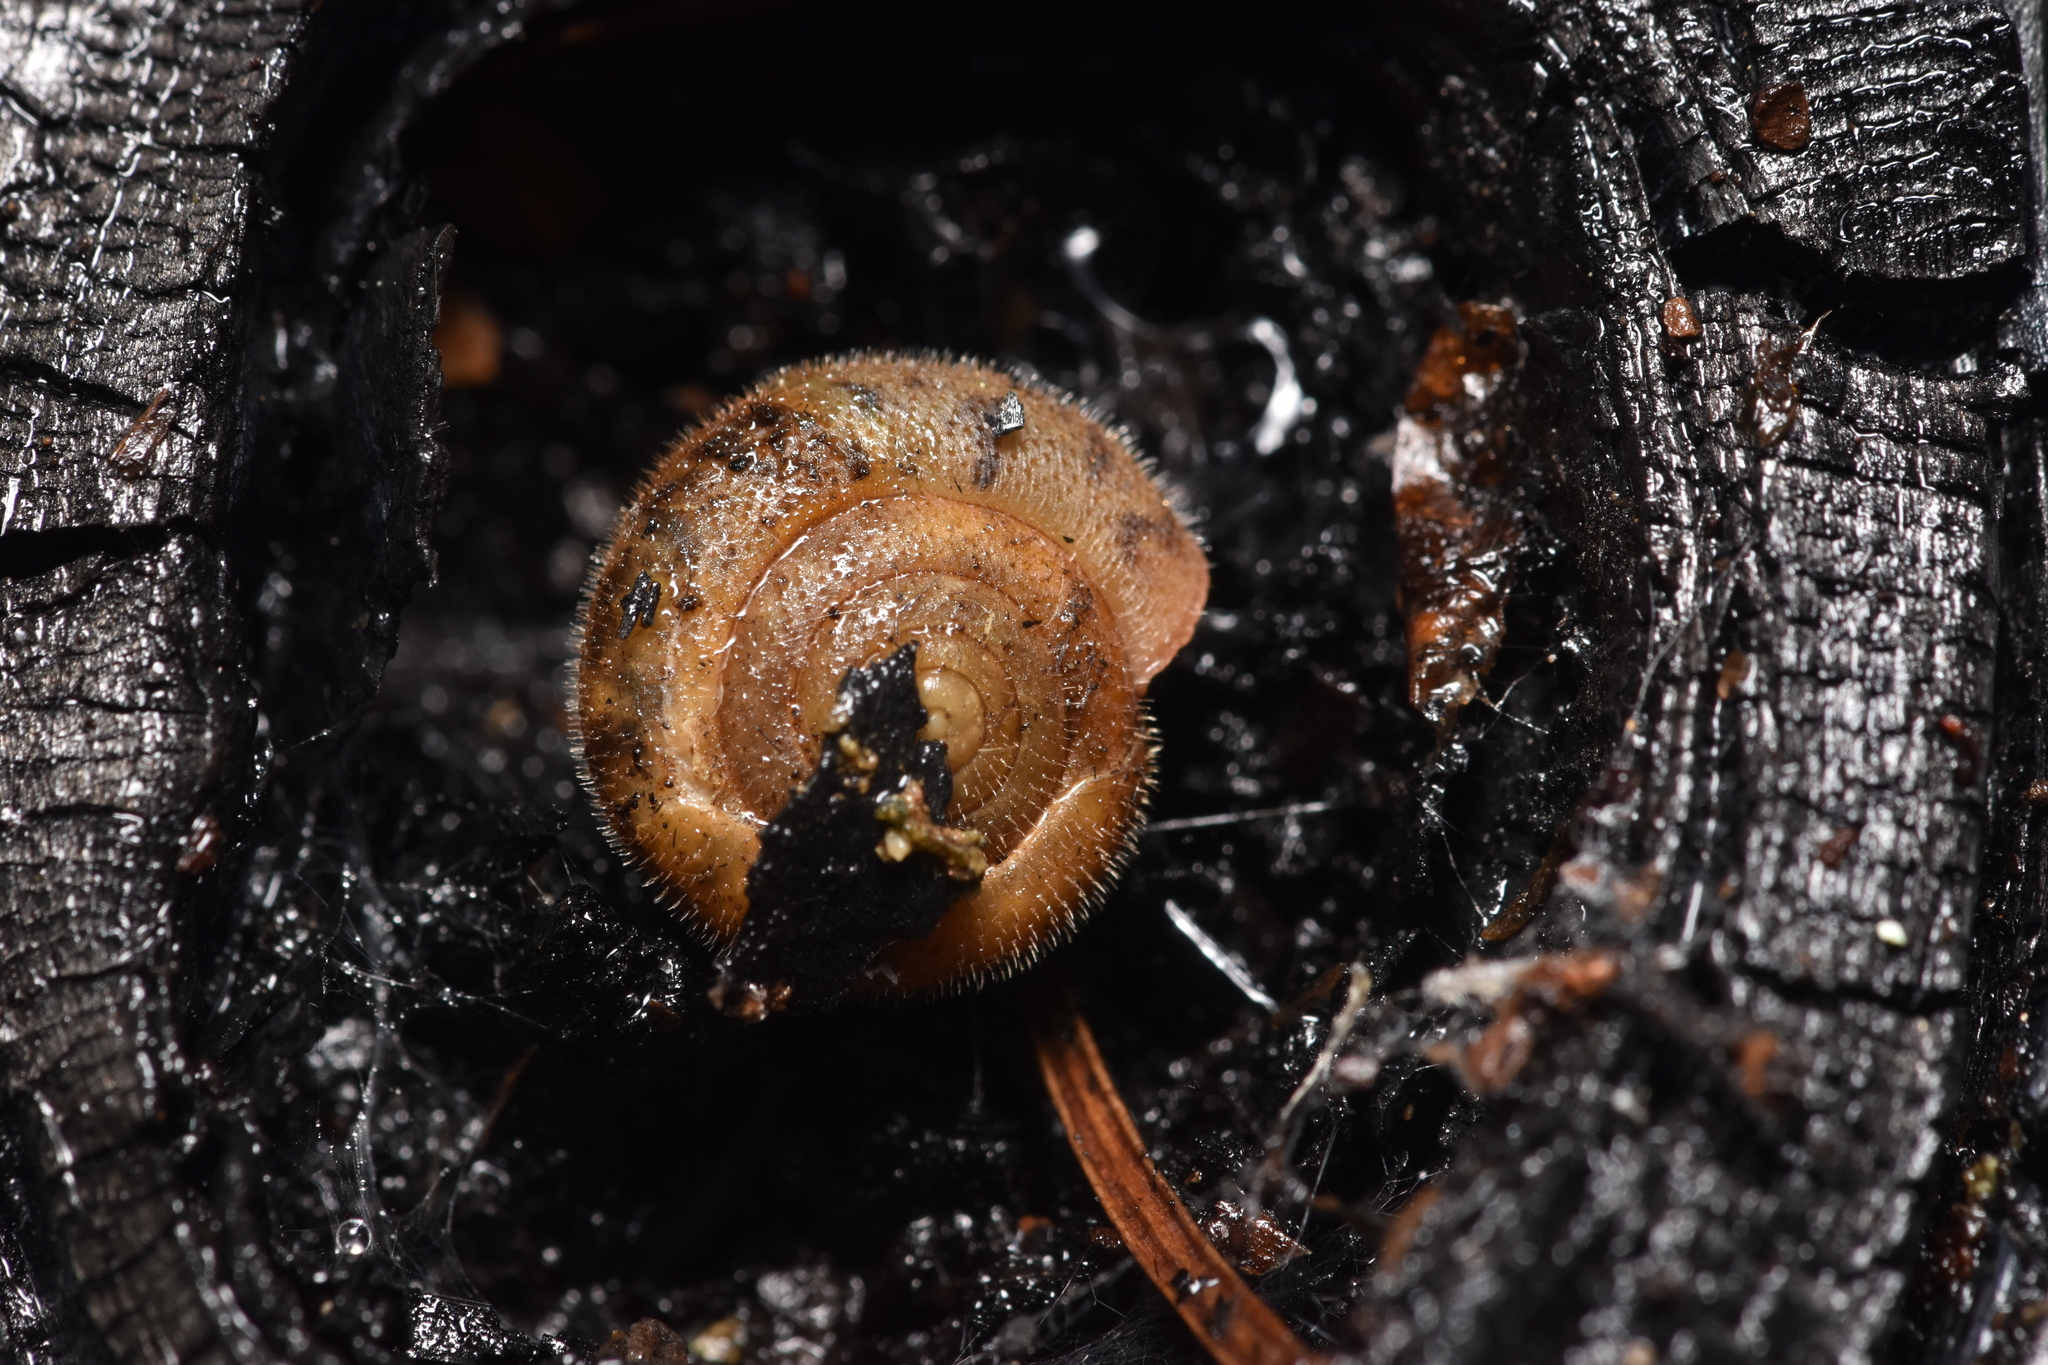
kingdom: Animalia
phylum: Mollusca
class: Gastropoda
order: Stylommatophora
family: Polygyridae
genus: Vespericola
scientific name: Vespericola columbianus
